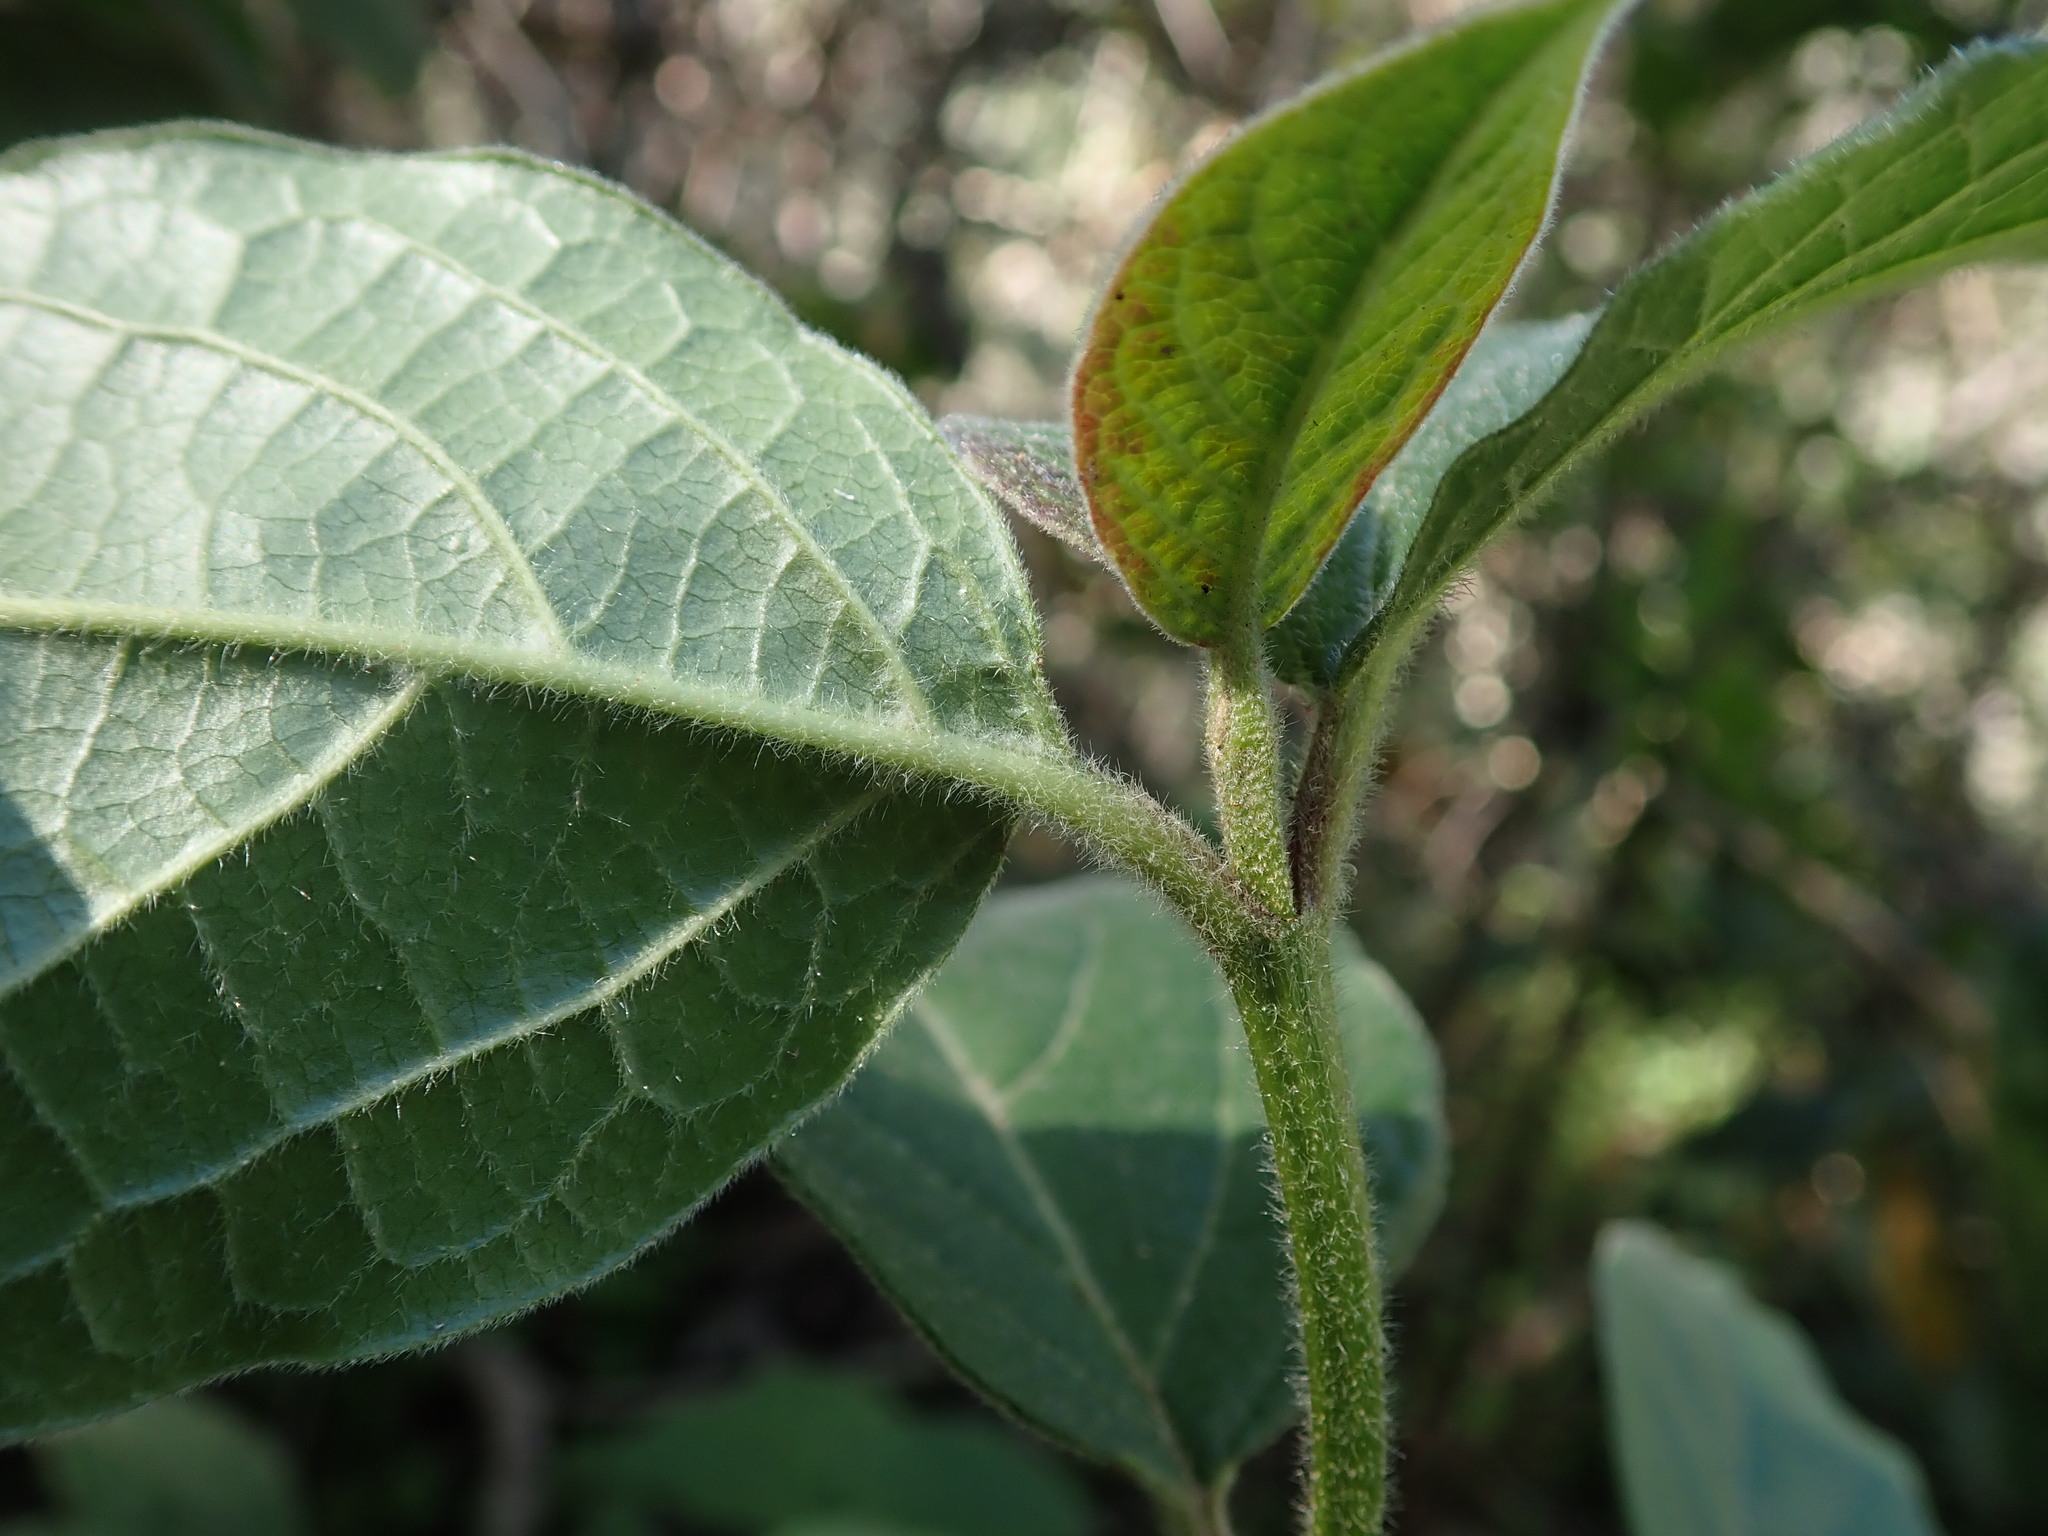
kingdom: Plantae
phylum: Tracheophyta
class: Magnoliopsida
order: Dipsacales
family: Viburnaceae
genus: Viburnum
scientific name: Viburnum rugosum
